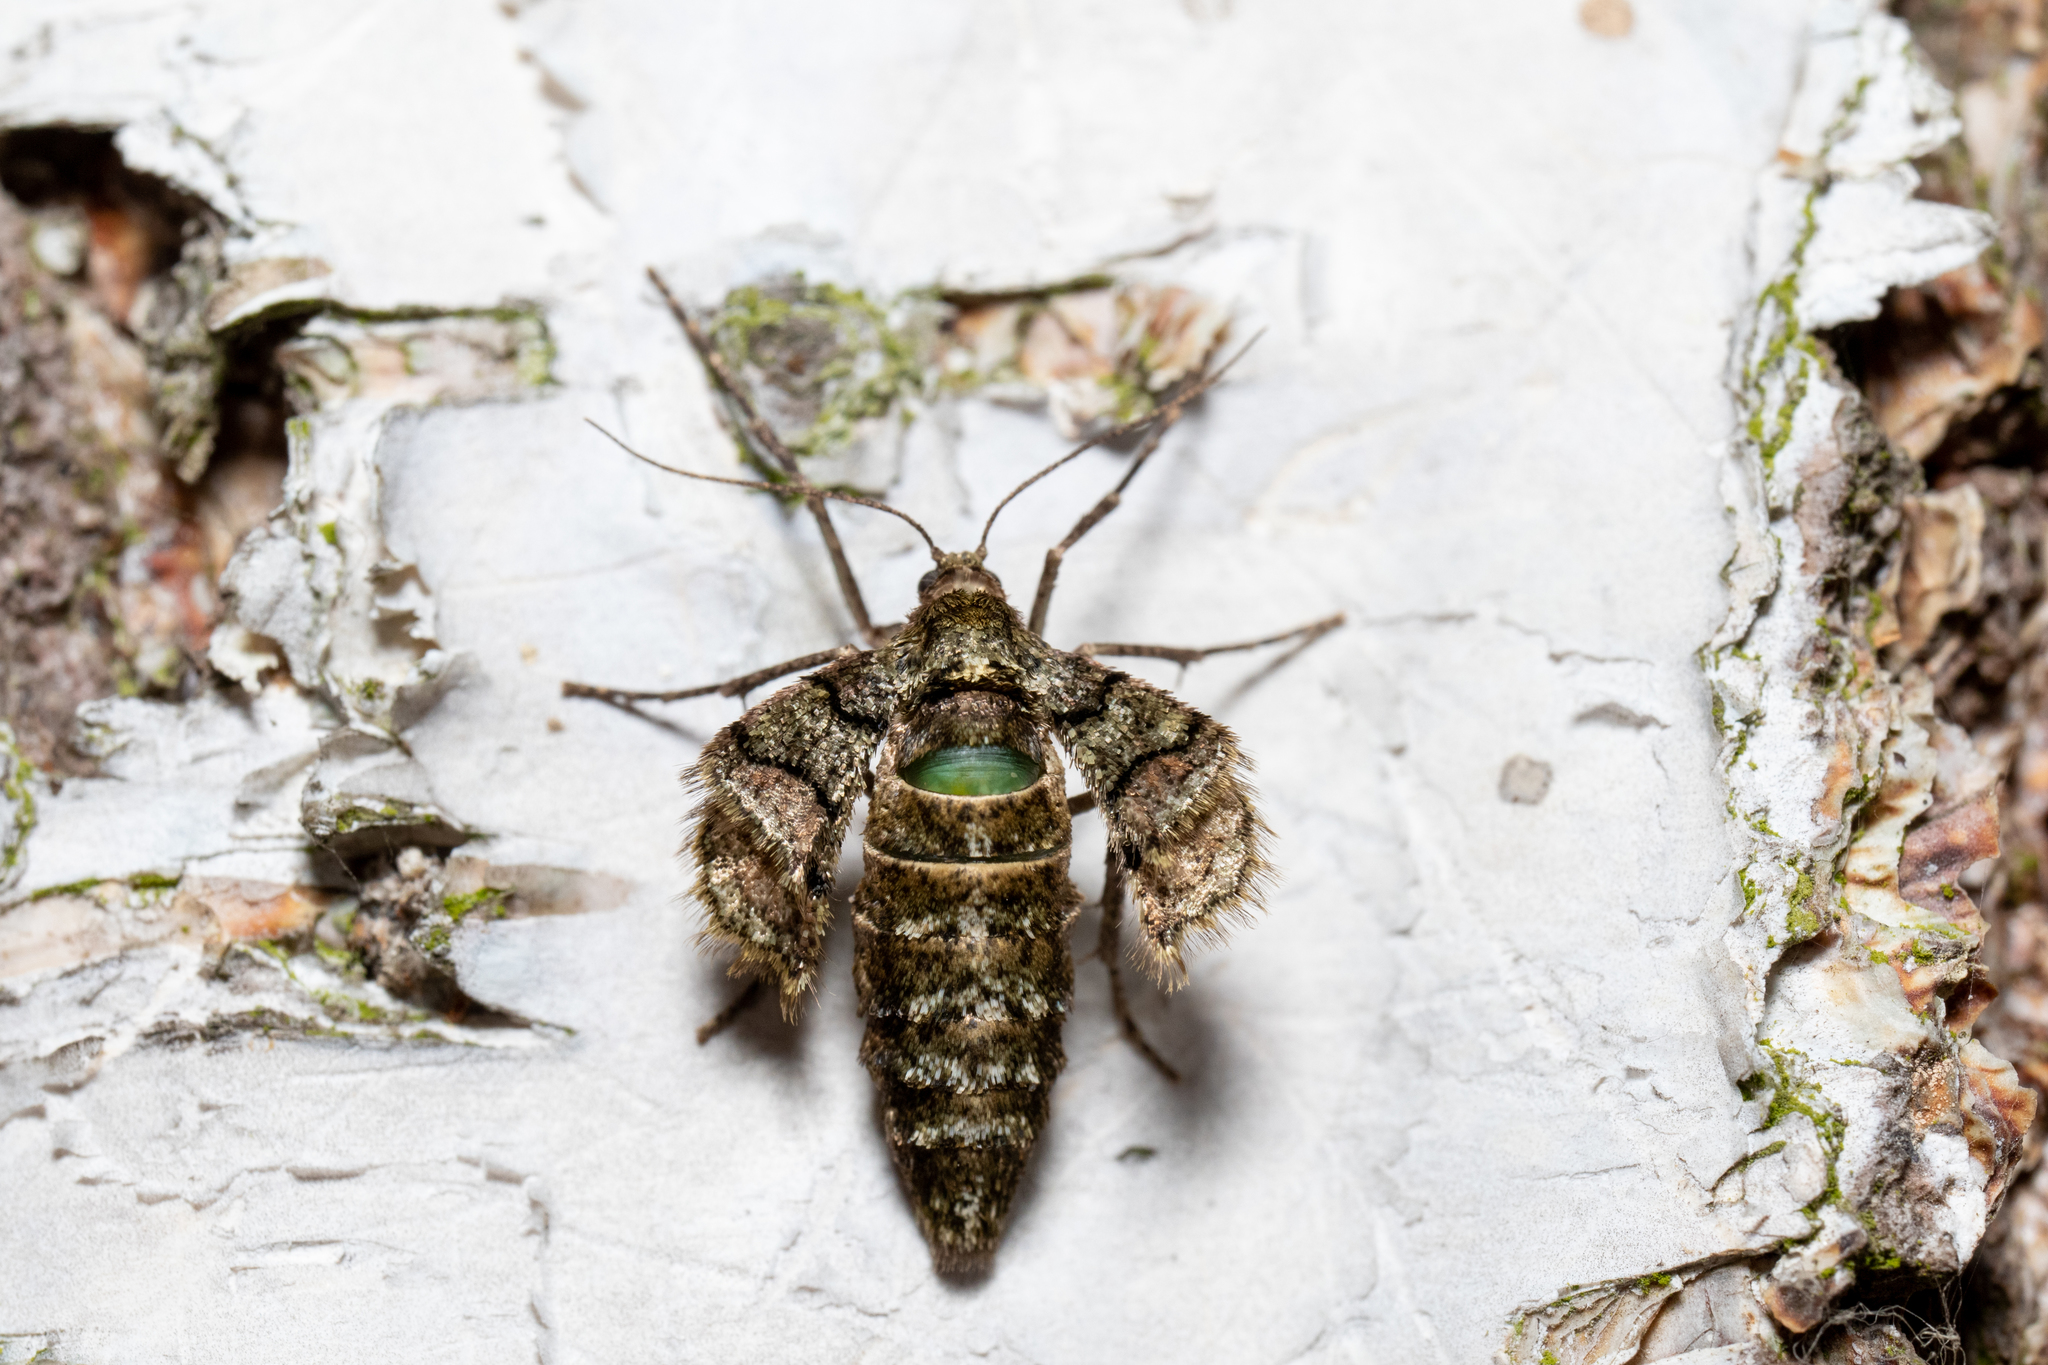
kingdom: Animalia
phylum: Arthropoda
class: Insecta
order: Lepidoptera
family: Geometridae
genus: Agriopis
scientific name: Agriopis marginaria
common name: Dotted border
